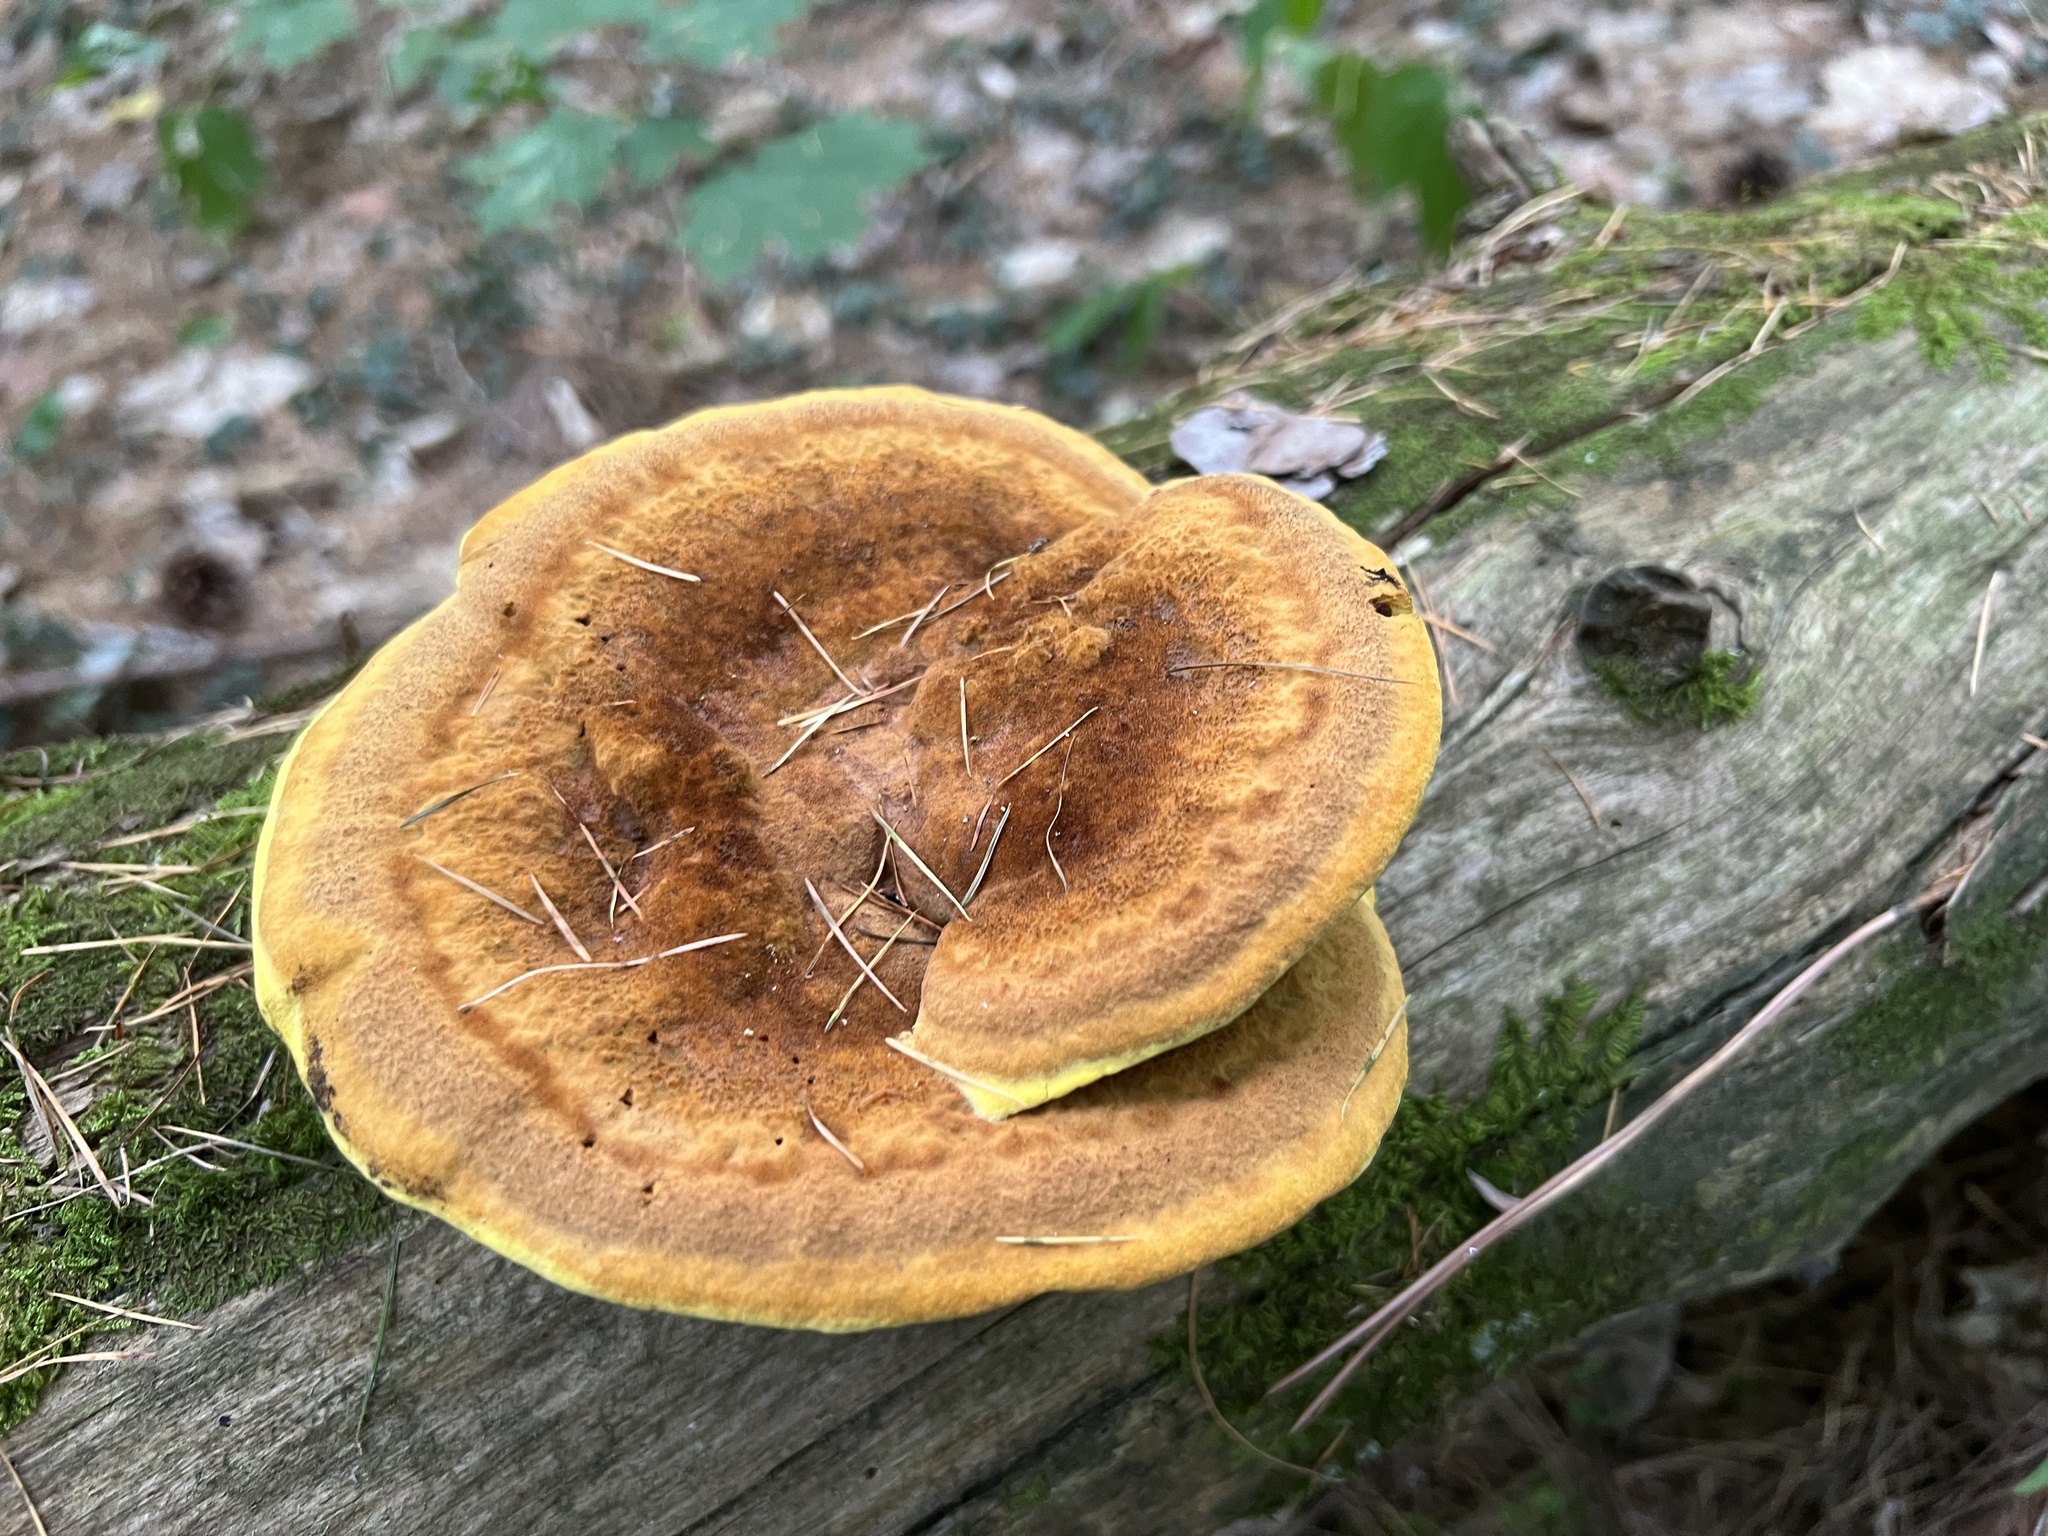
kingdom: Fungi
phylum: Basidiomycota
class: Agaricomycetes
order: Polyporales
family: Laetiporaceae
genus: Phaeolus
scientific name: Phaeolus schweinitzii
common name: Dyer's mazegill
